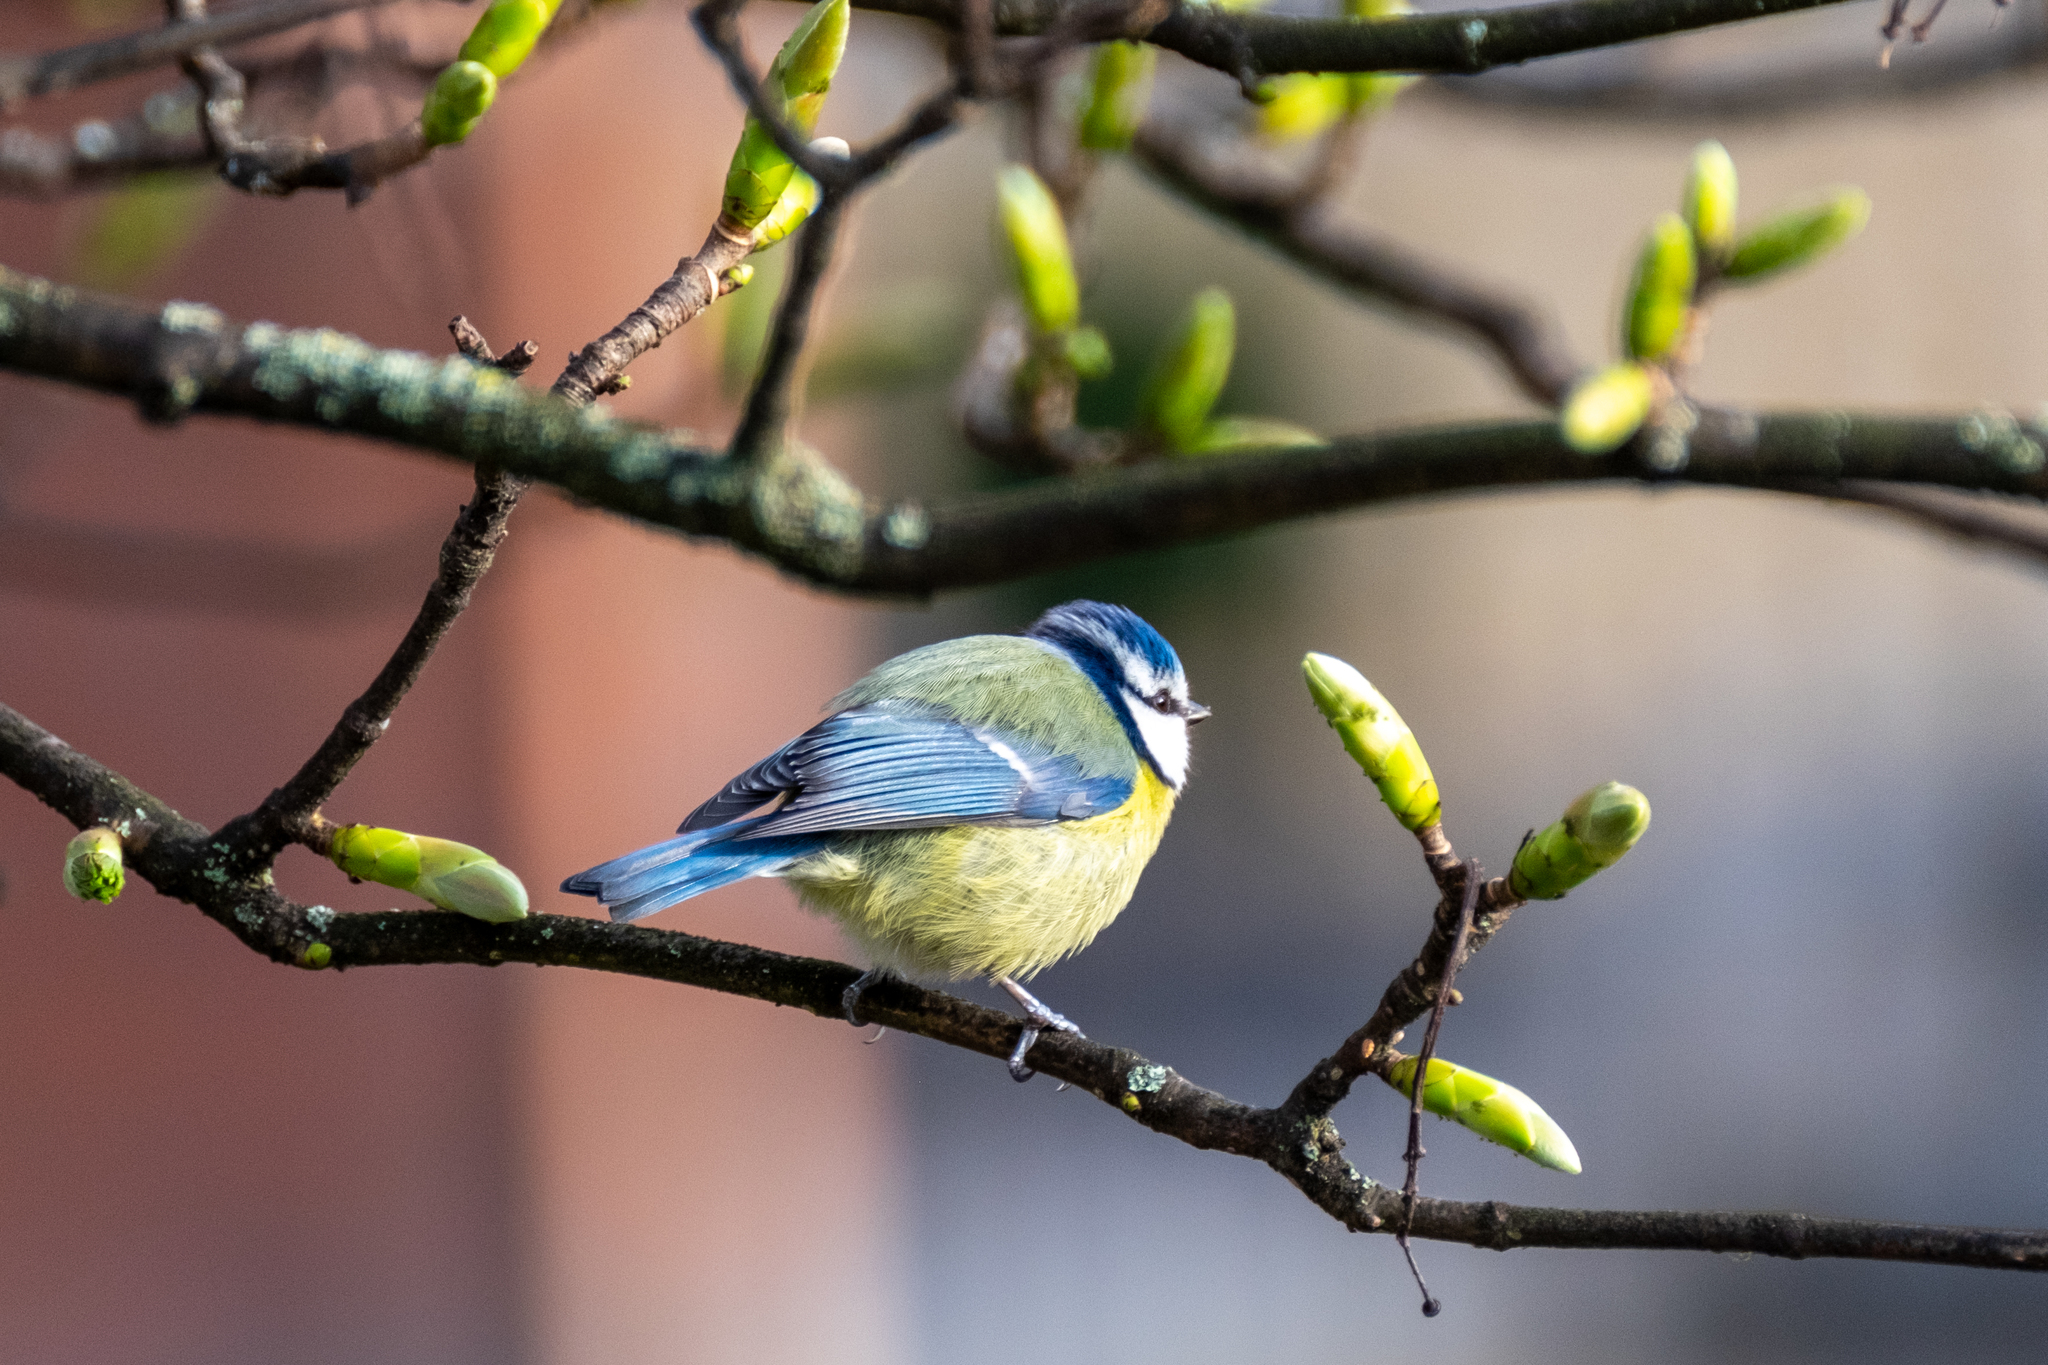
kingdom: Animalia
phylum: Chordata
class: Aves
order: Passeriformes
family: Paridae
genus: Cyanistes
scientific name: Cyanistes caeruleus
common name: Eurasian blue tit
